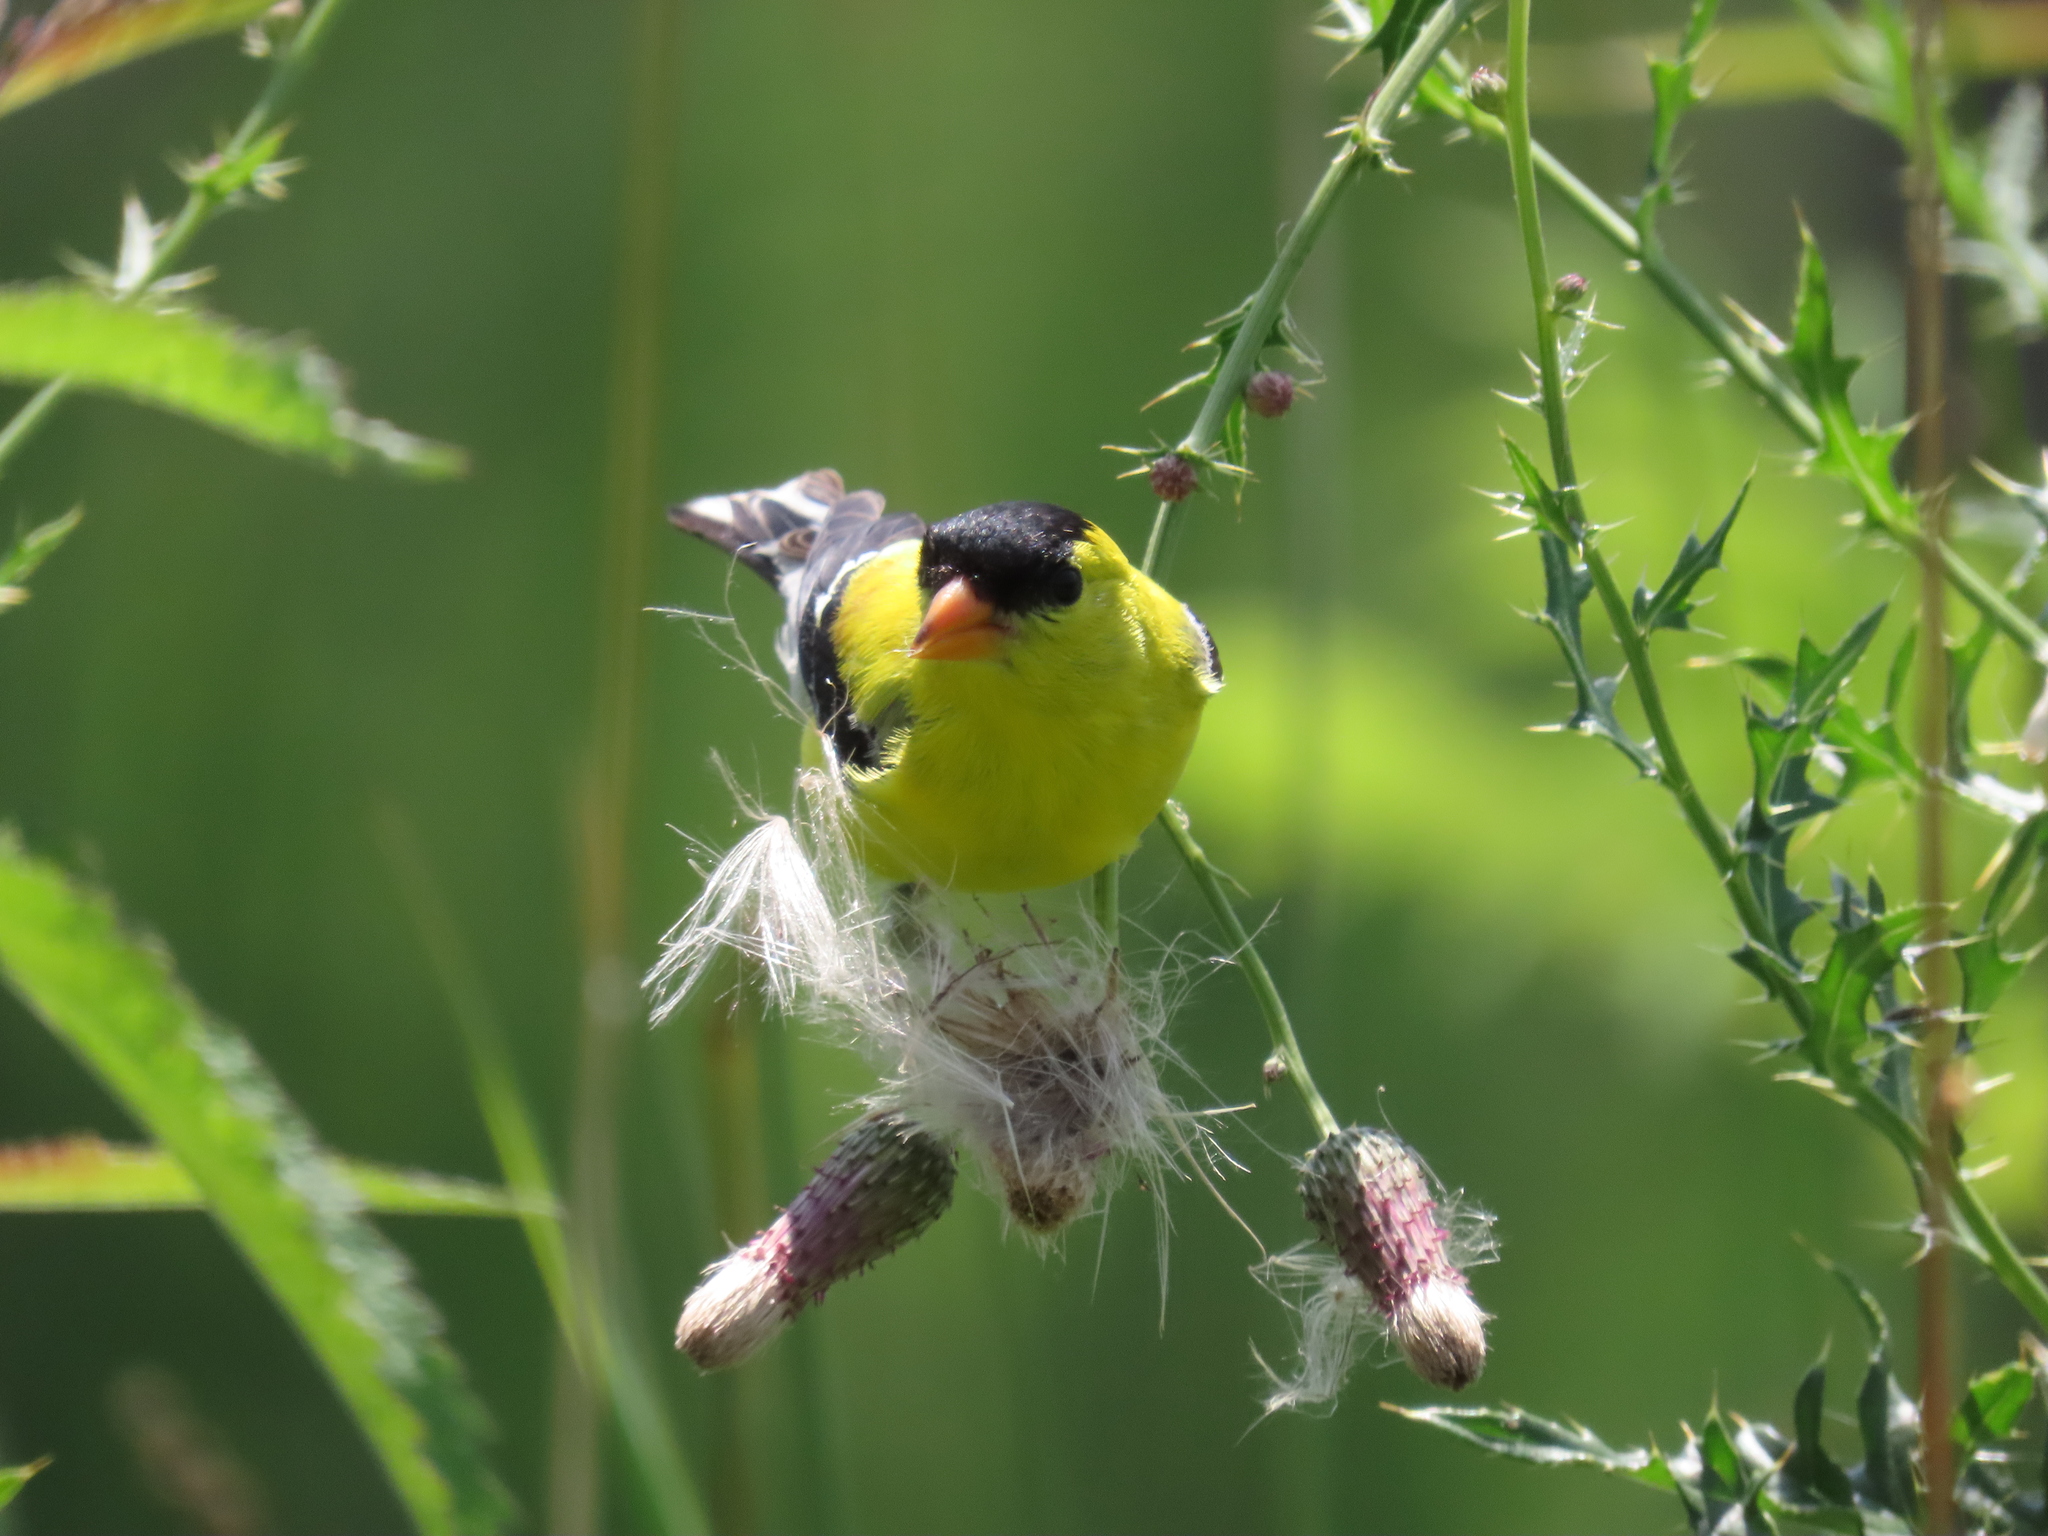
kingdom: Animalia
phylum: Chordata
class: Aves
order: Passeriformes
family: Fringillidae
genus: Spinus
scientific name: Spinus tristis
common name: American goldfinch
